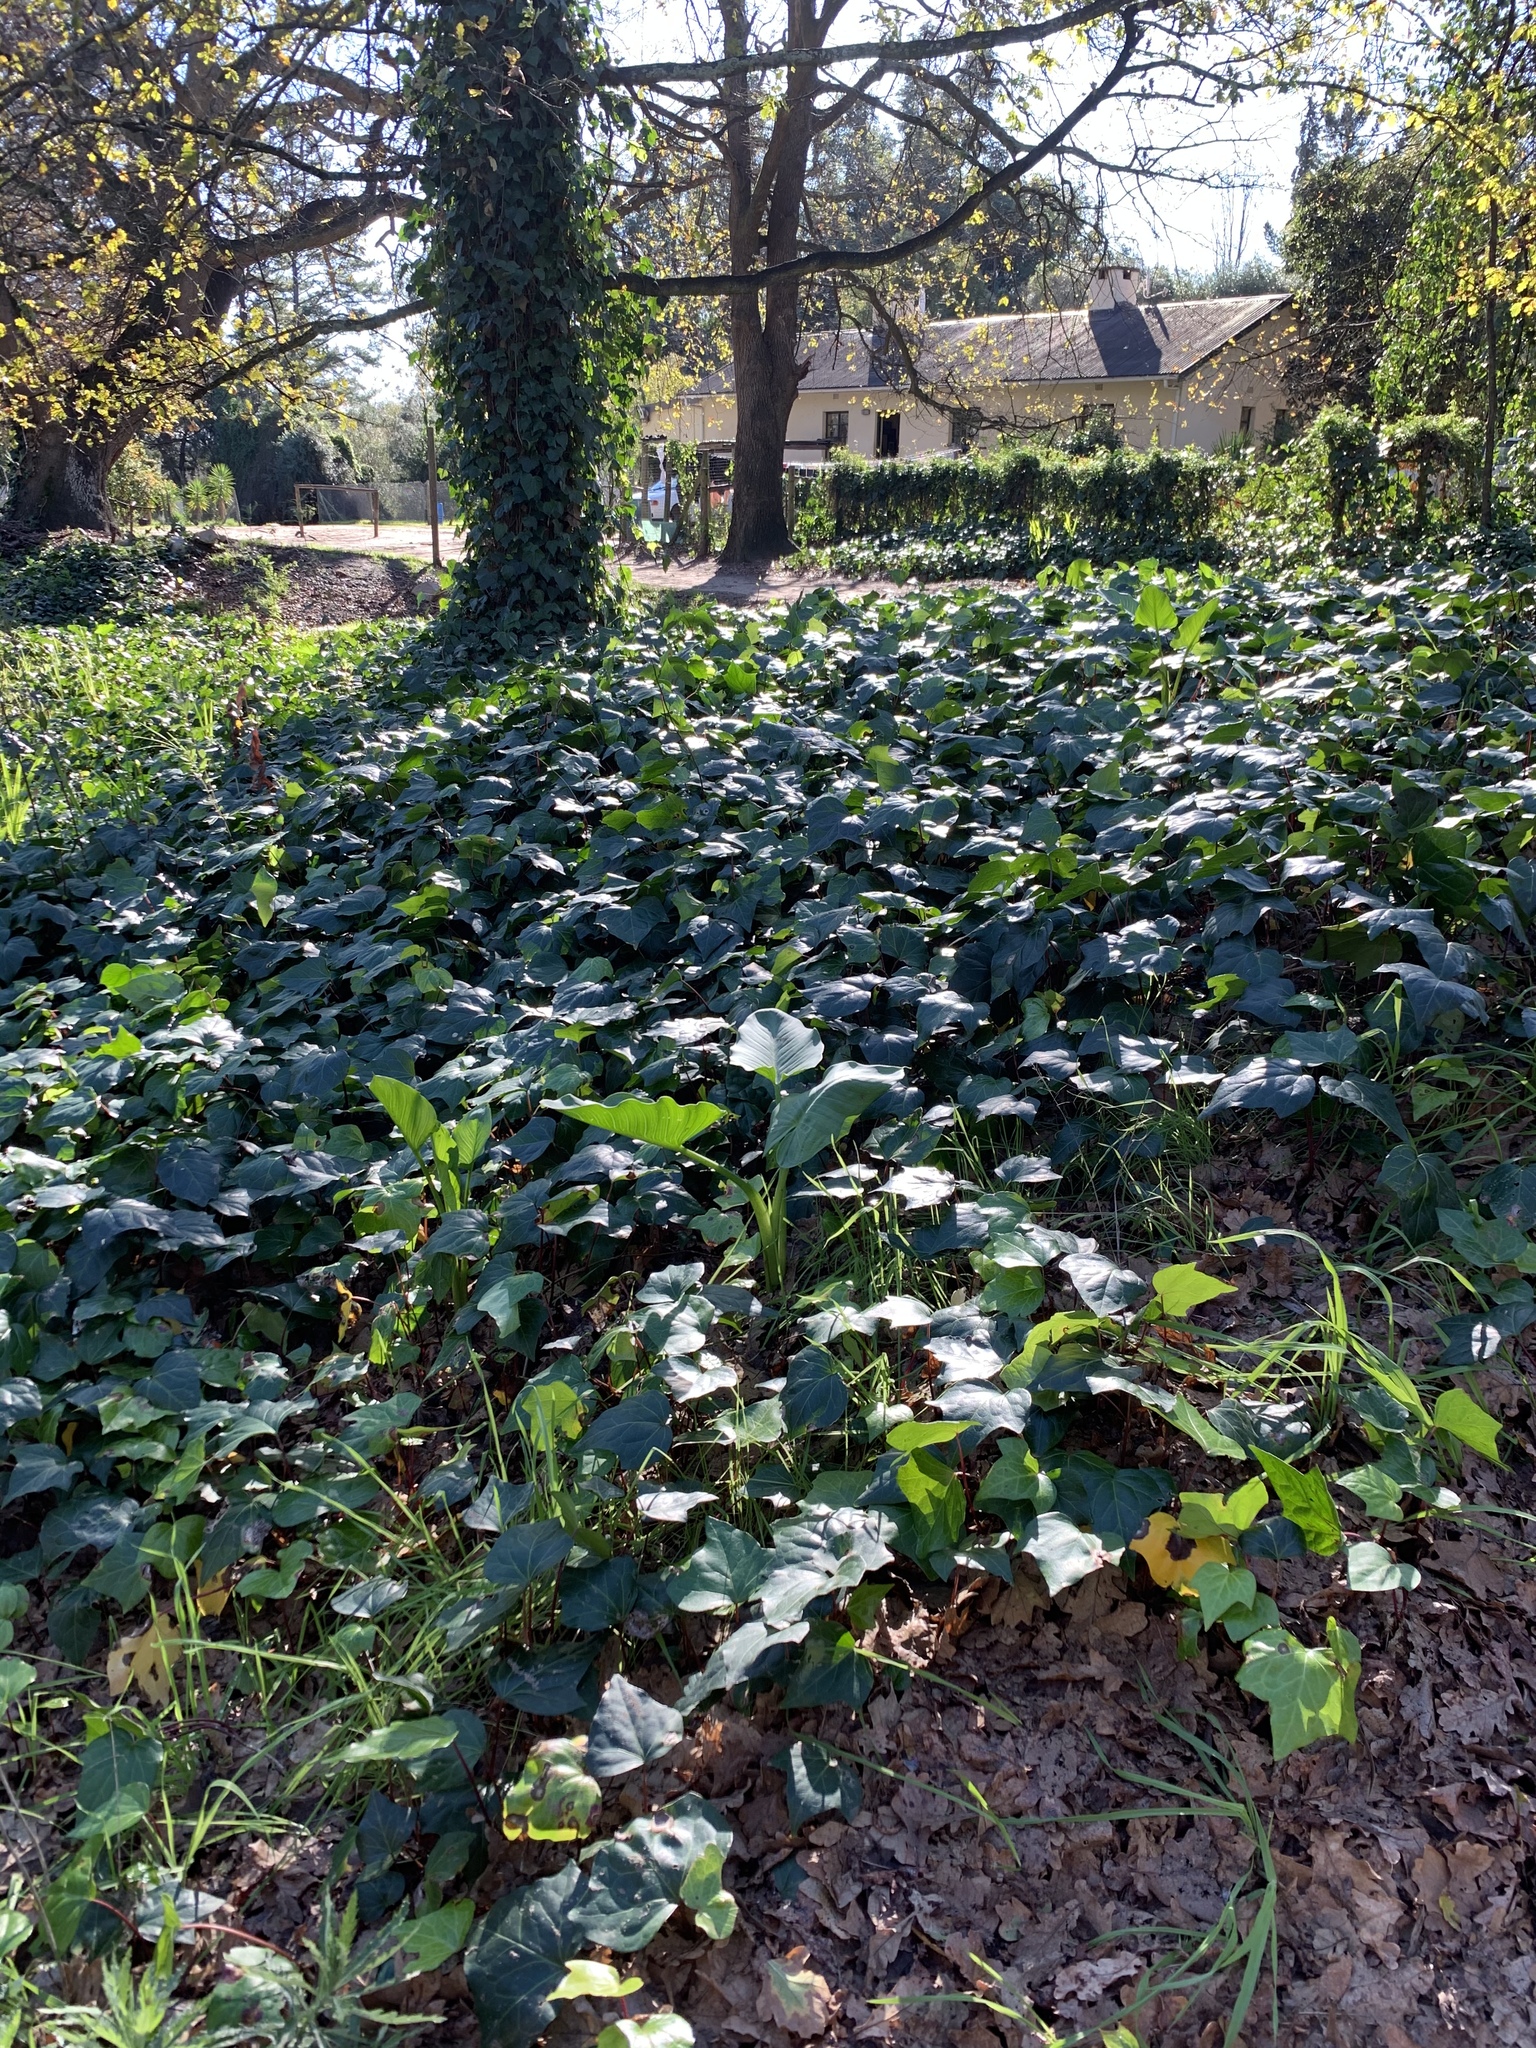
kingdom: Plantae
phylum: Tracheophyta
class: Magnoliopsida
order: Apiales
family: Araliaceae
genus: Hedera
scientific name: Hedera canariensis
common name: Madeira ivy
